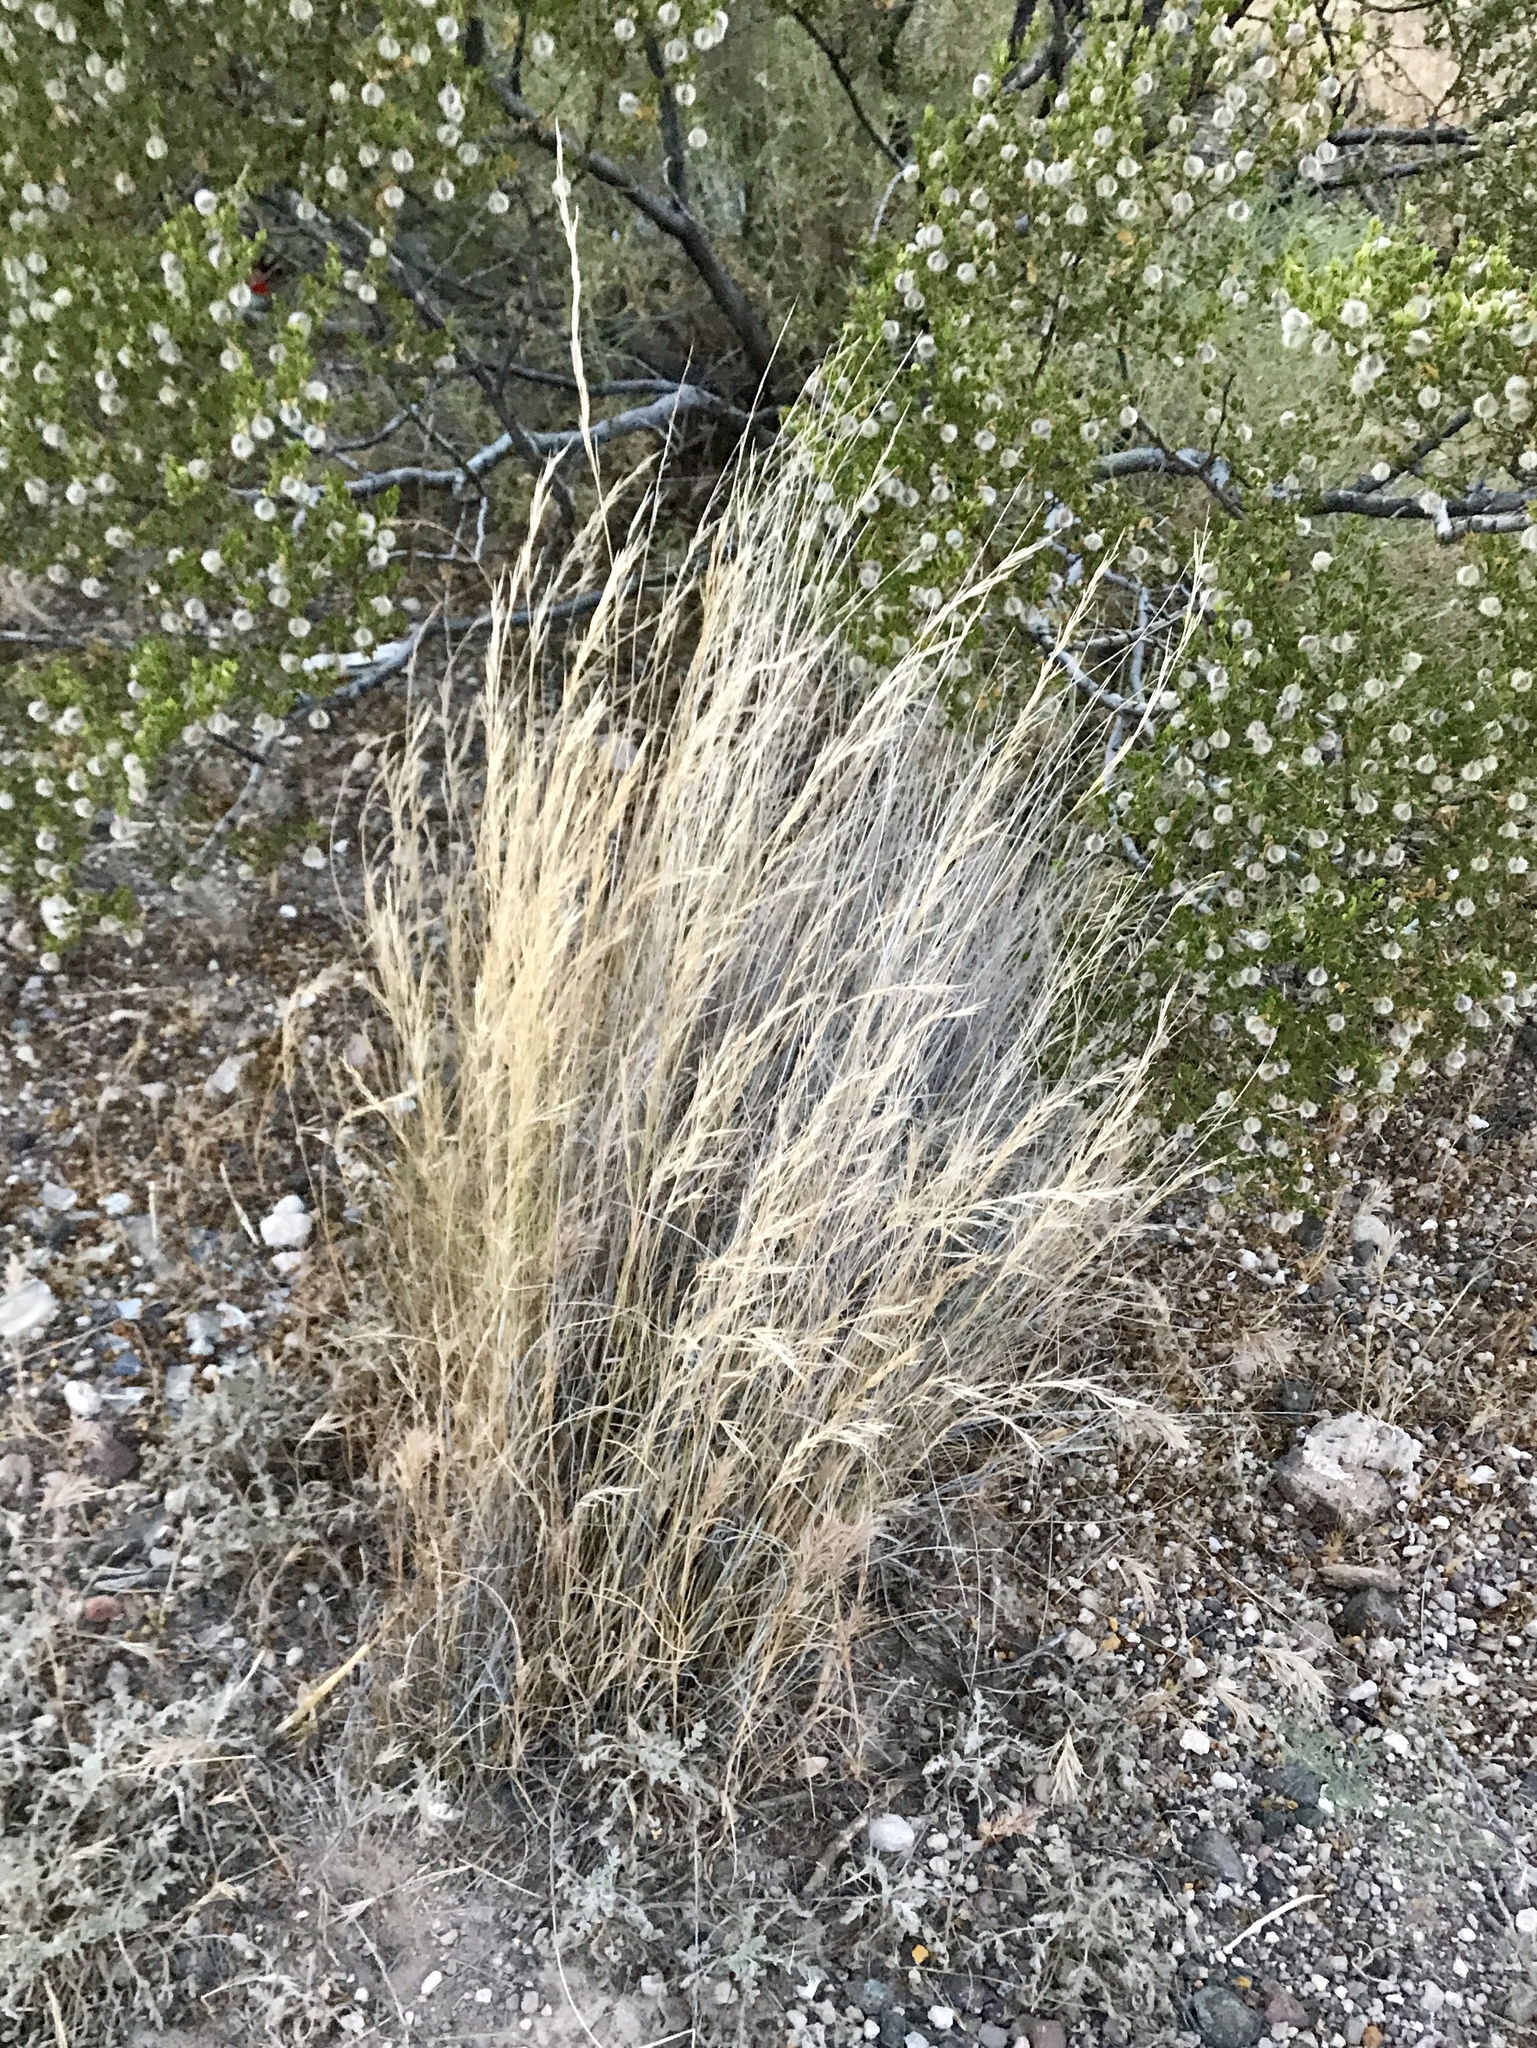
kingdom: Plantae
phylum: Tracheophyta
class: Liliopsida
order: Poales
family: Poaceae
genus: Aristida
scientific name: Aristida purpurea
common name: Purple threeawn
